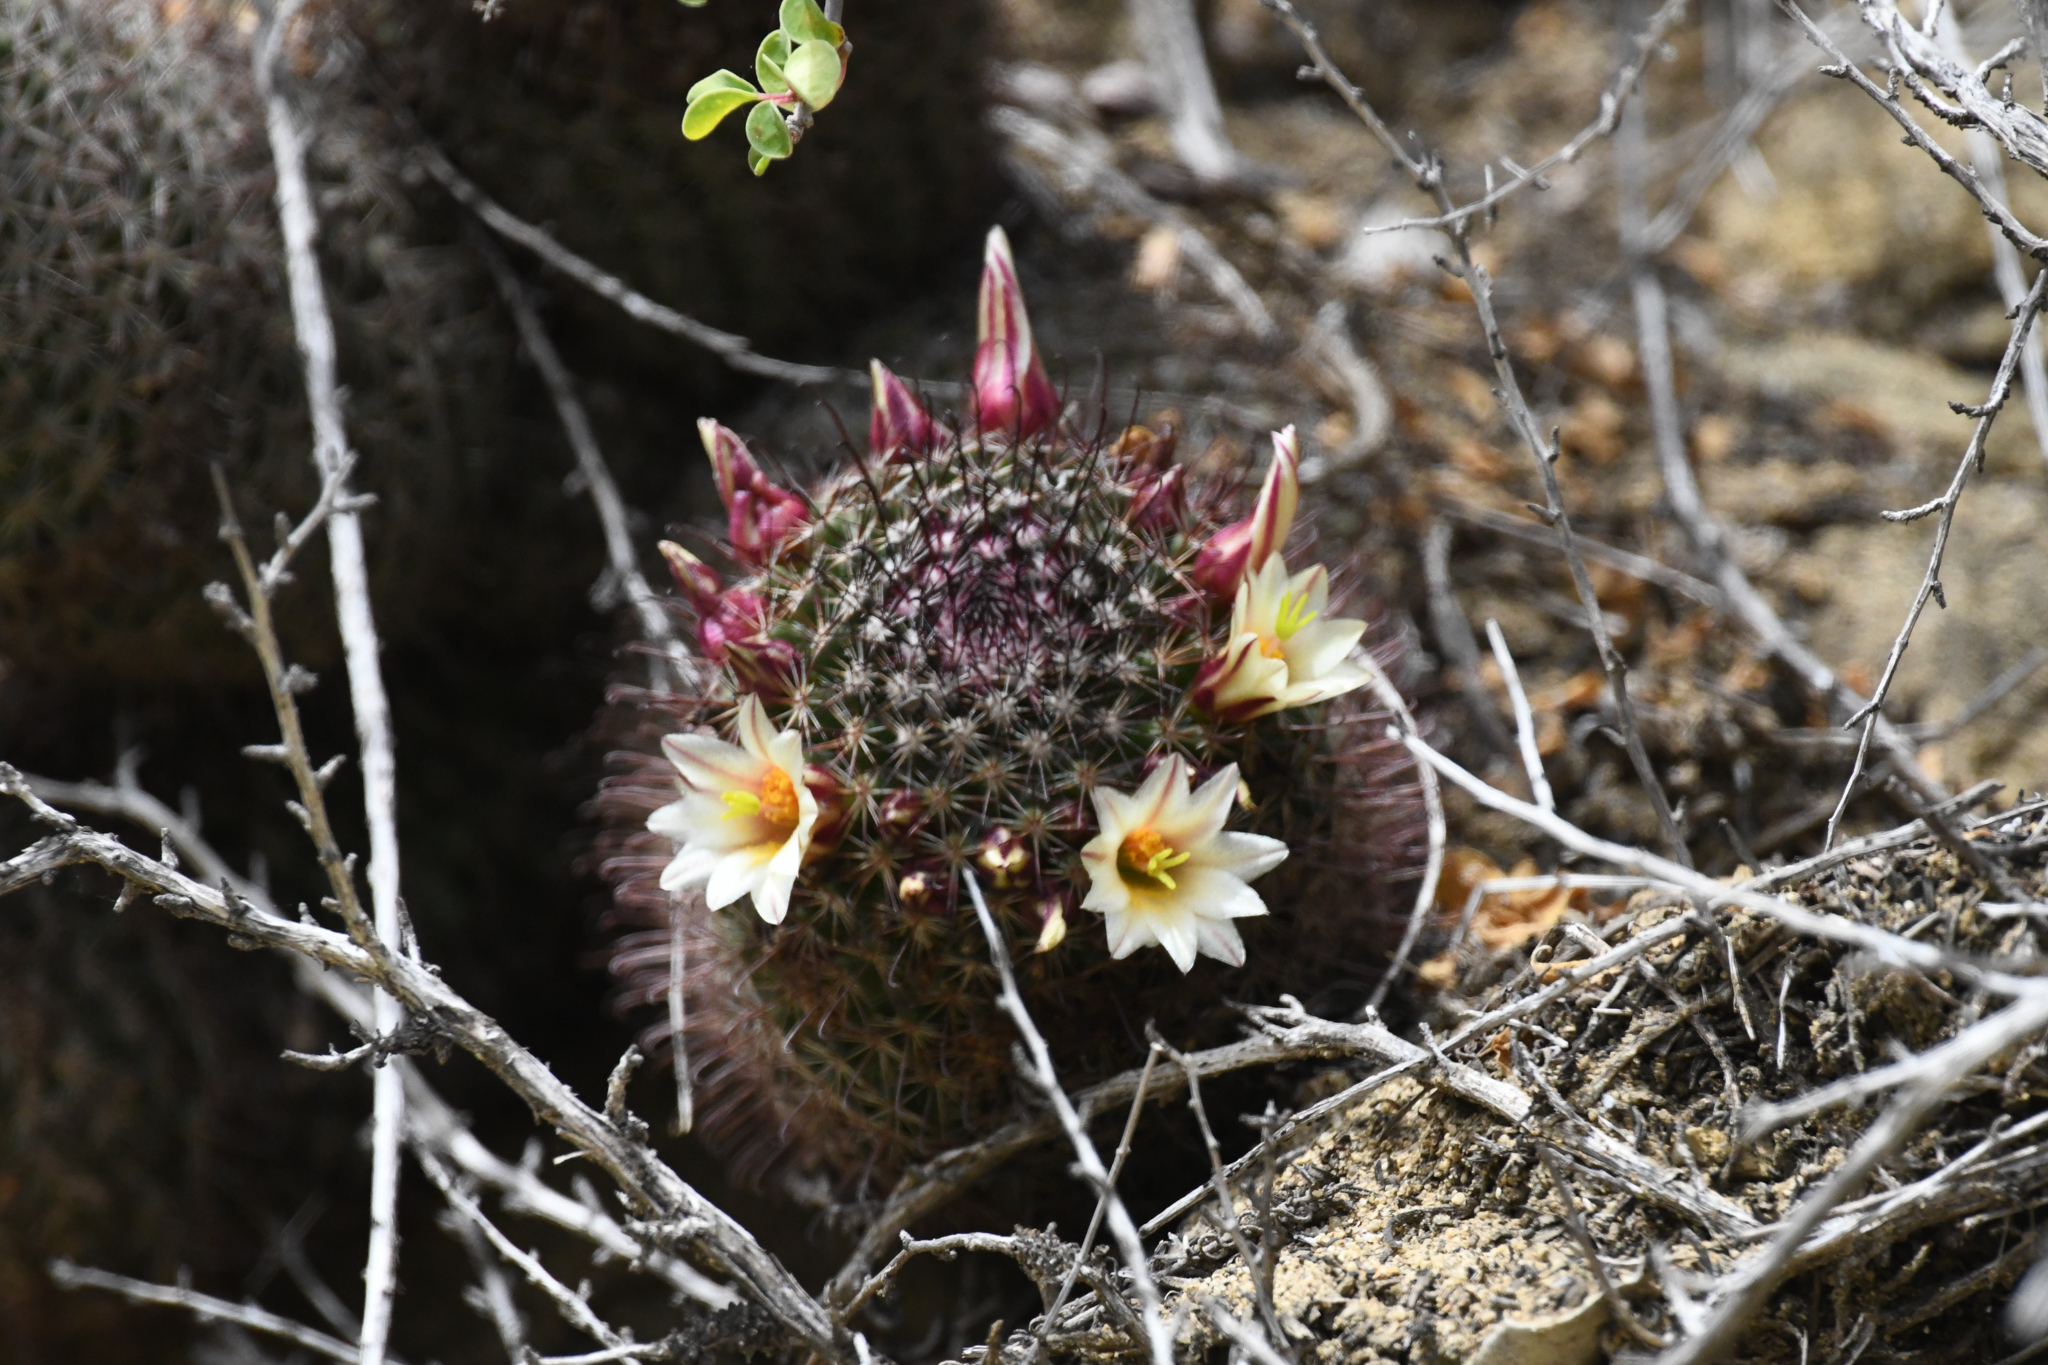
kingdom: Plantae
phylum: Tracheophyta
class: Magnoliopsida
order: Caryophyllales
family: Cactaceae
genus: Cochemiea
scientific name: Cochemiea dioica
